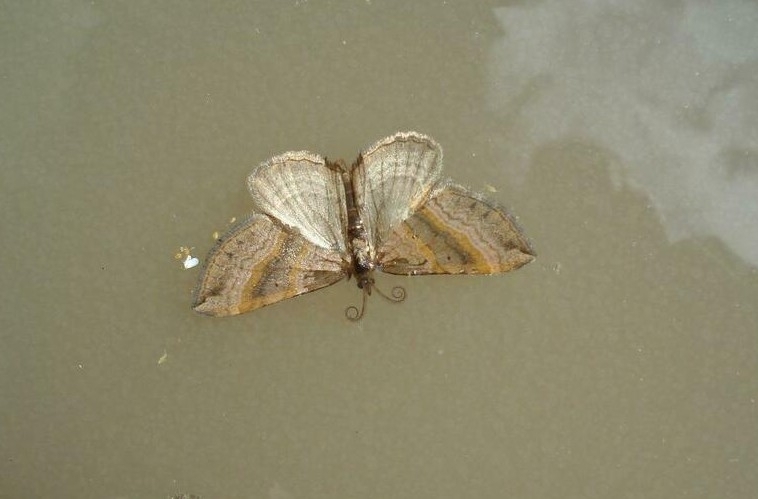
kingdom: Animalia
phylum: Arthropoda
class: Insecta
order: Lepidoptera
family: Geometridae
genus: Scotopteryx
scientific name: Scotopteryx chenopodiata
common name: Shaded broad-bar
